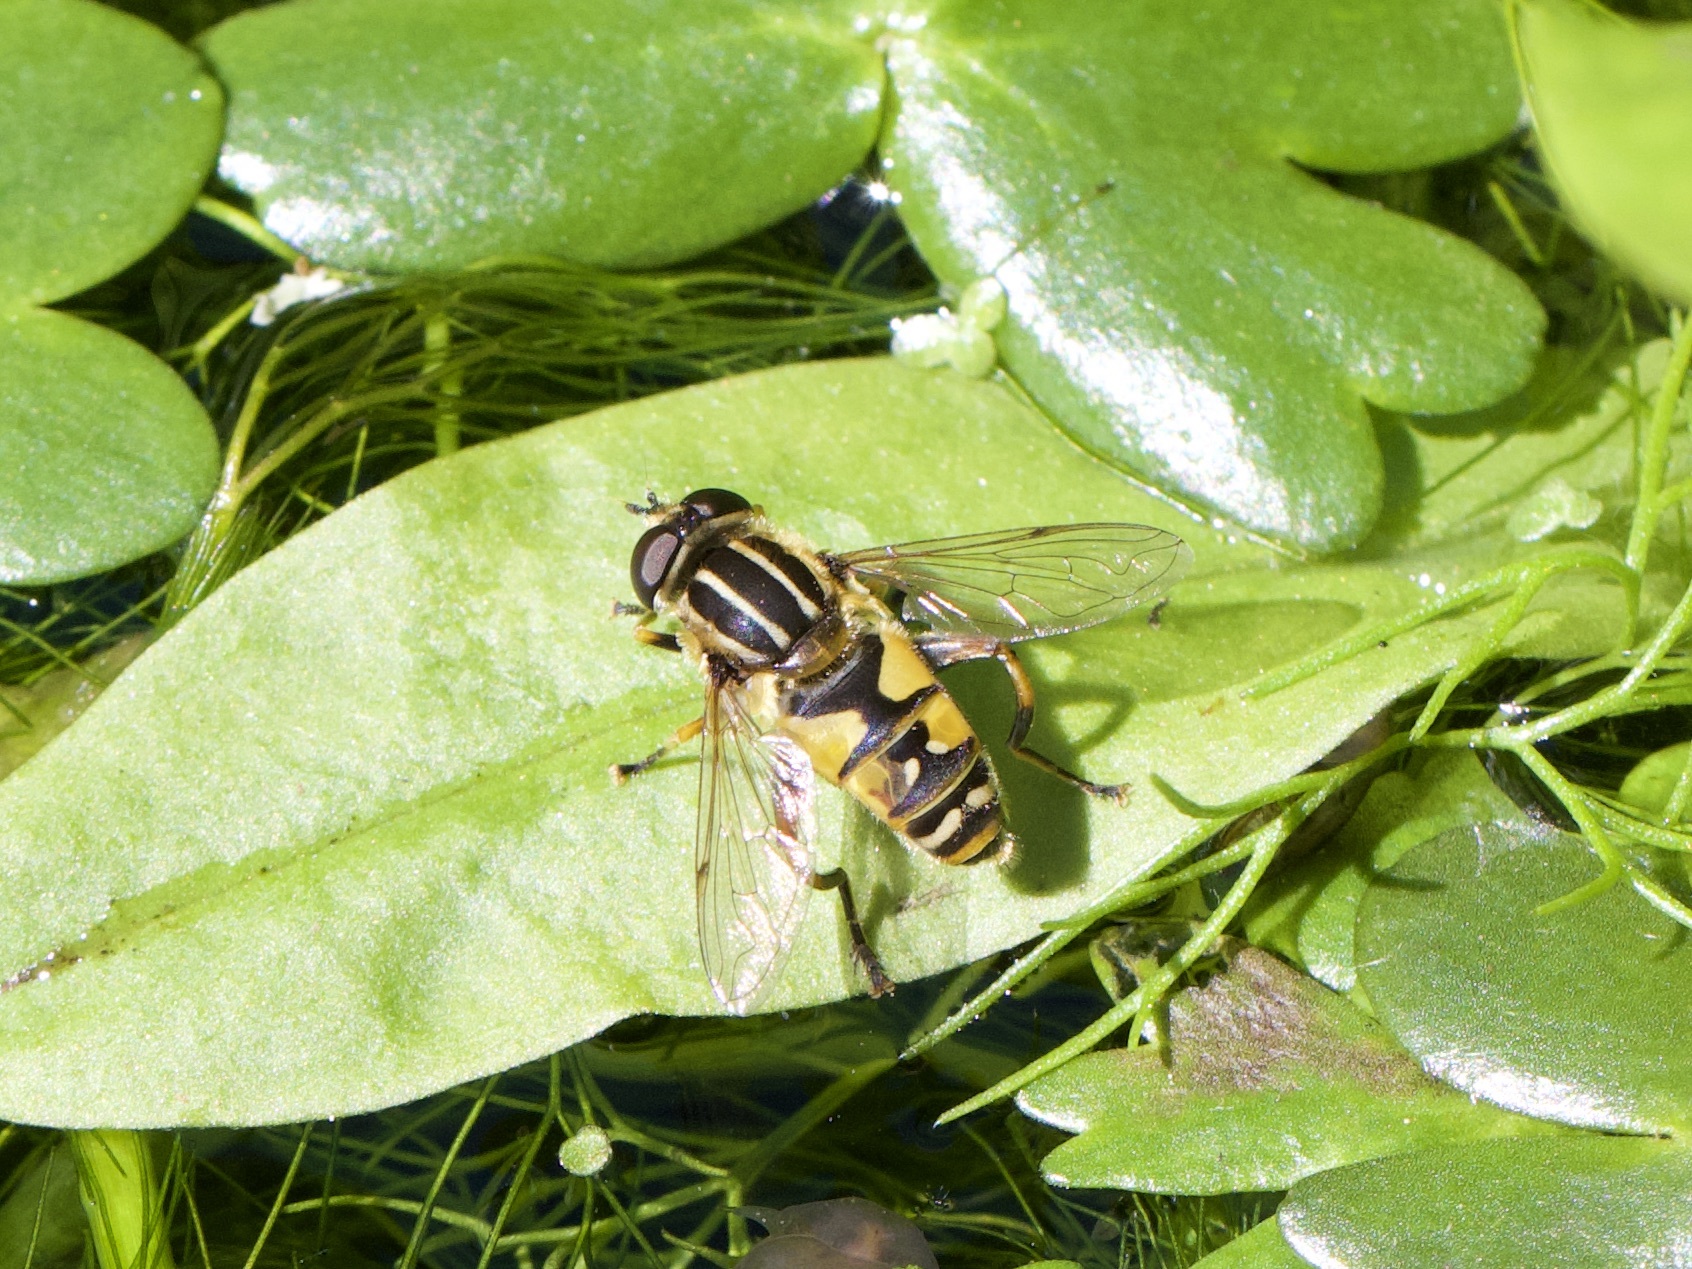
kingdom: Animalia
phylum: Arthropoda
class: Insecta
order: Diptera
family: Syrphidae
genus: Helophilus
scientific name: Helophilus pendulus
